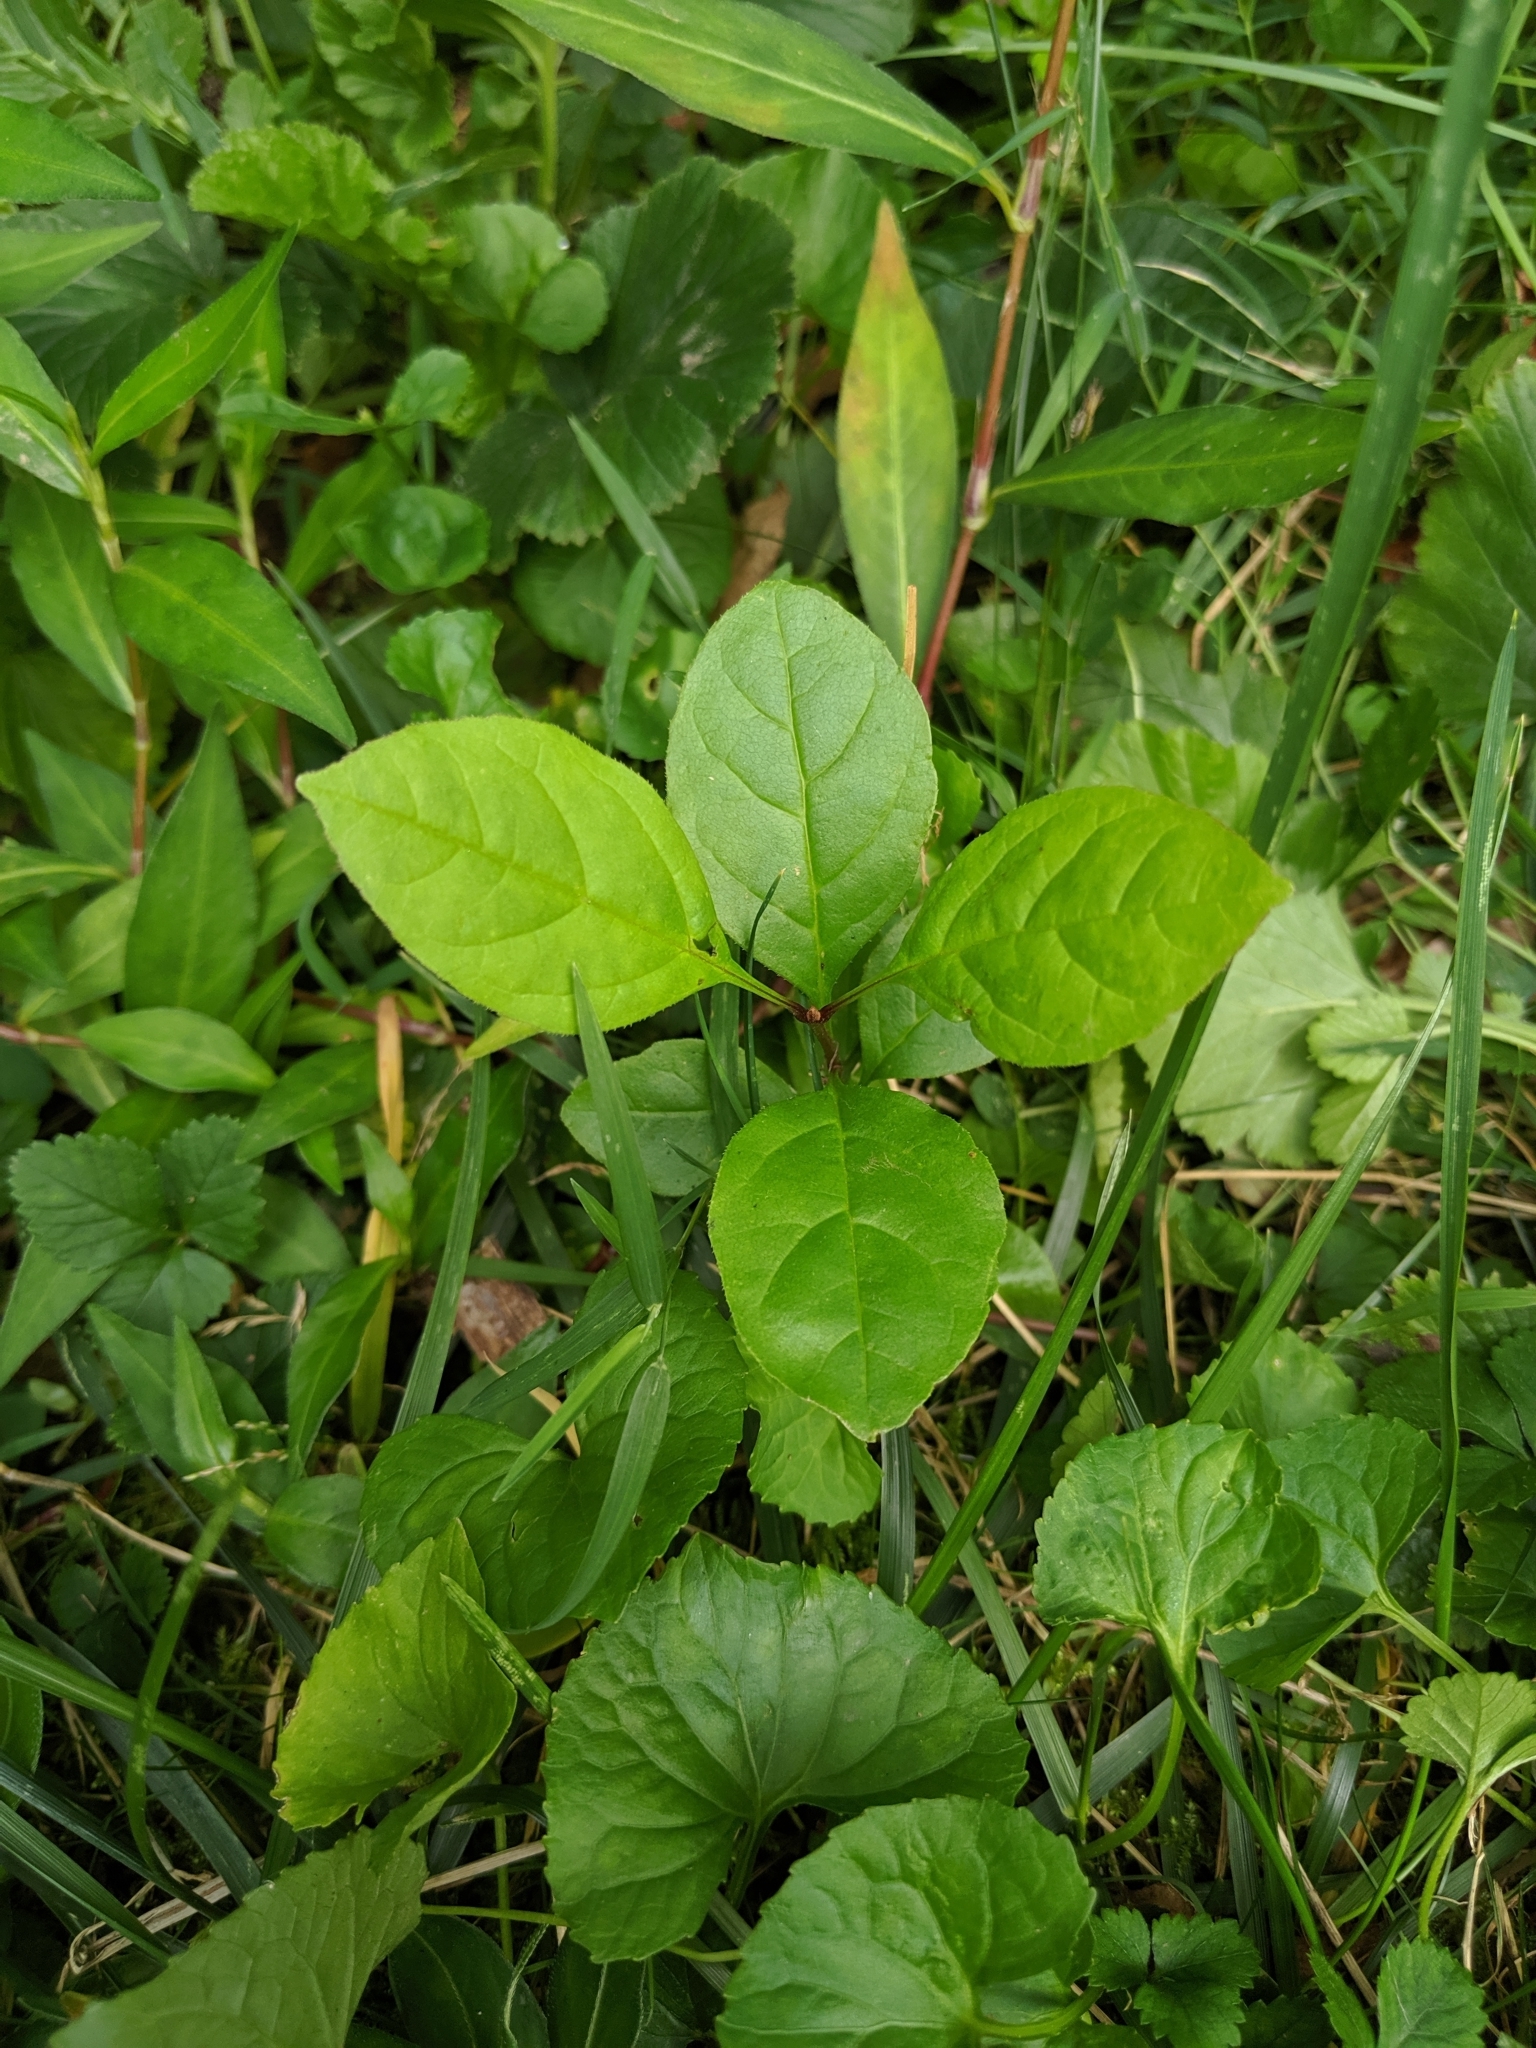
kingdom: Plantae
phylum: Tracheophyta
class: Magnoliopsida
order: Lamiales
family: Oleaceae
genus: Fraxinus
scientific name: Fraxinus pennsylvanica
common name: Green ash
